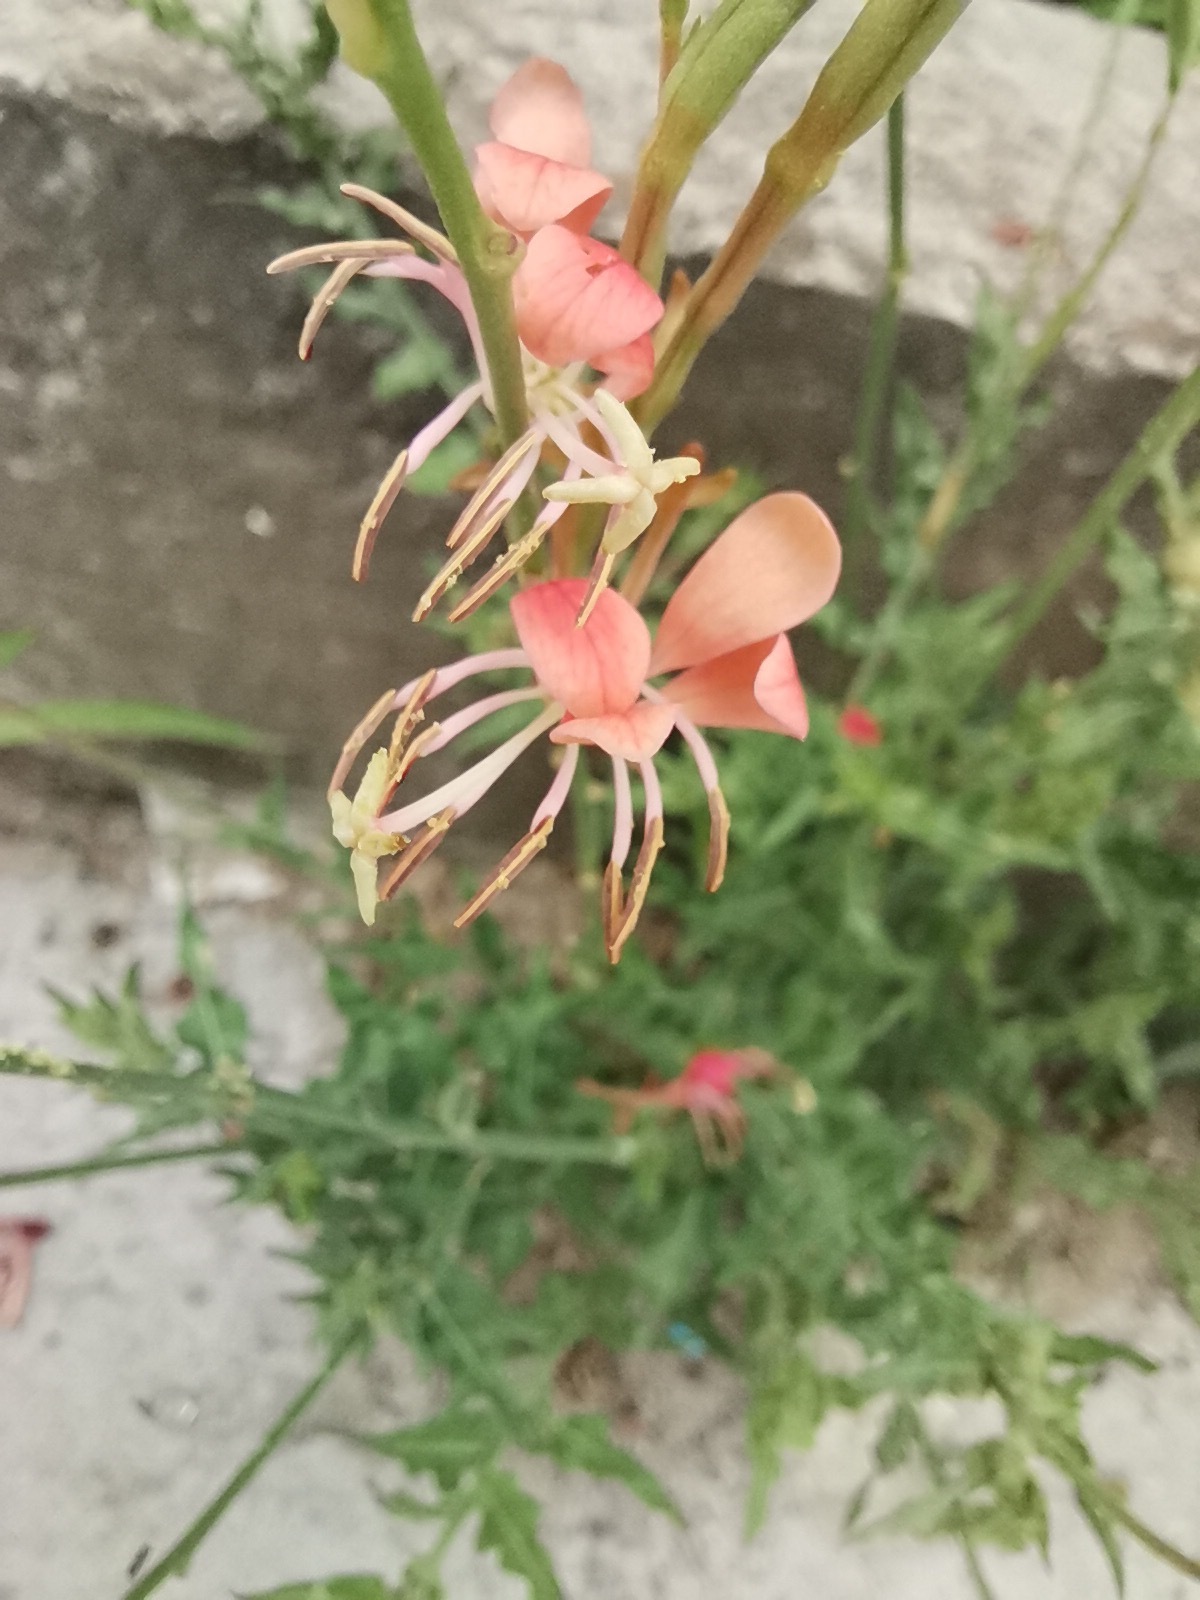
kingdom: Plantae
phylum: Tracheophyta
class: Magnoliopsida
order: Myrtales
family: Onagraceae
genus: Oenothera
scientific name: Oenothera suffrutescens
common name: Scarlet beeblossom
